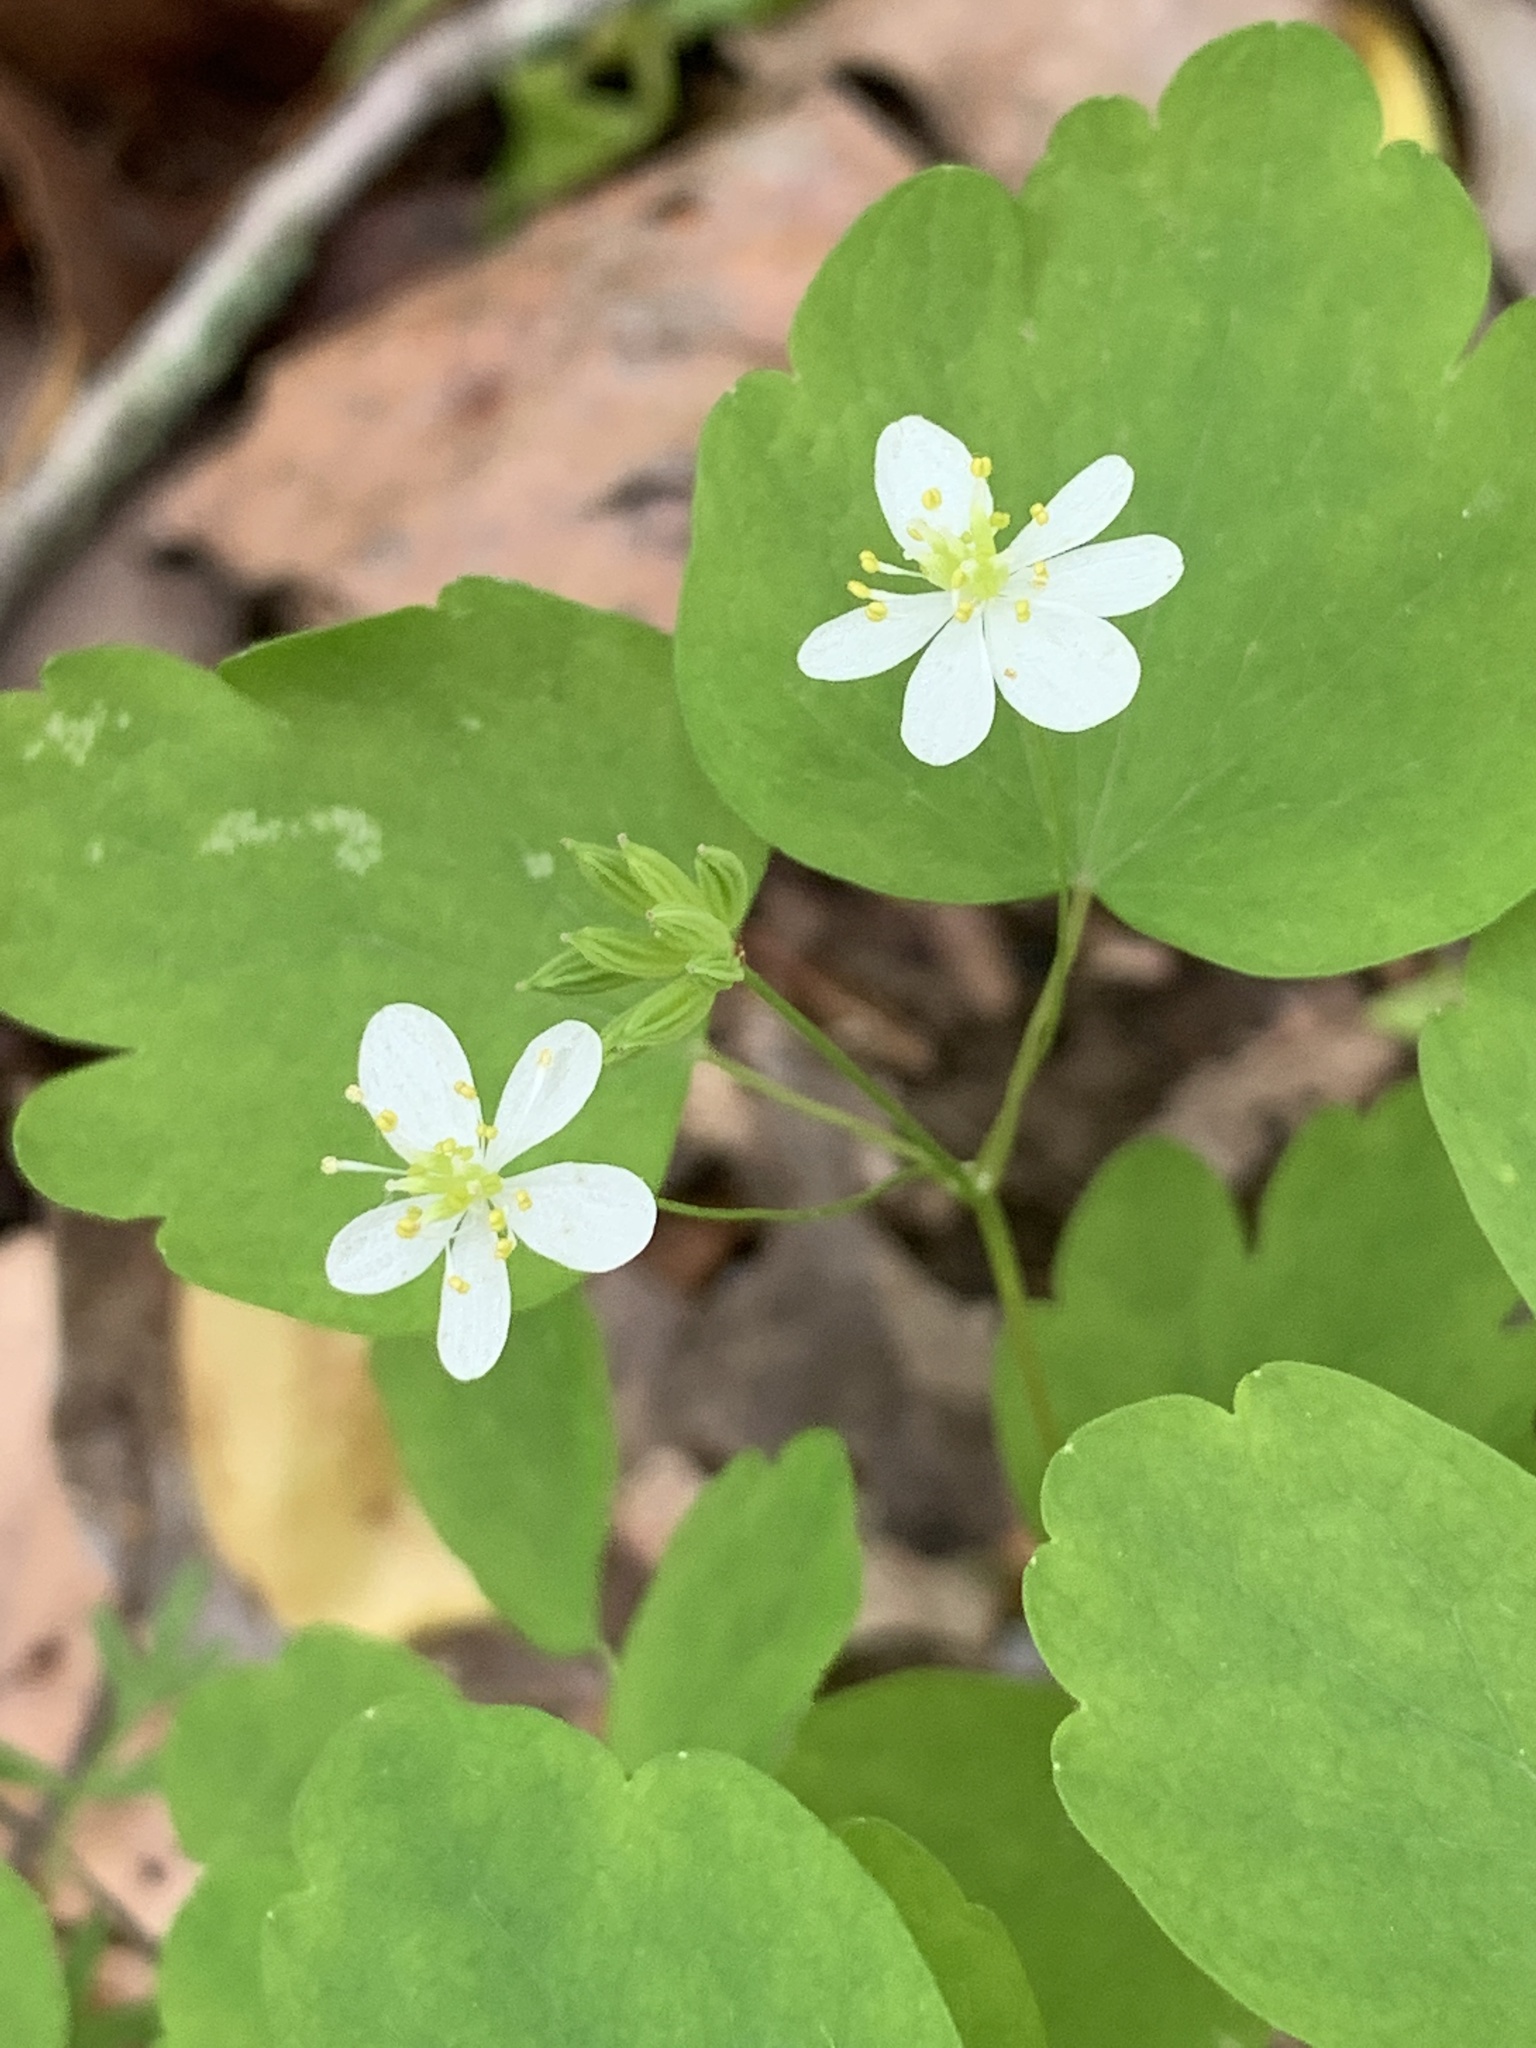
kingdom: Plantae
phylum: Tracheophyta
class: Magnoliopsida
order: Ranunculales
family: Ranunculaceae
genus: Thalictrum
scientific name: Thalictrum thalictroides
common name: Rue-anemone
